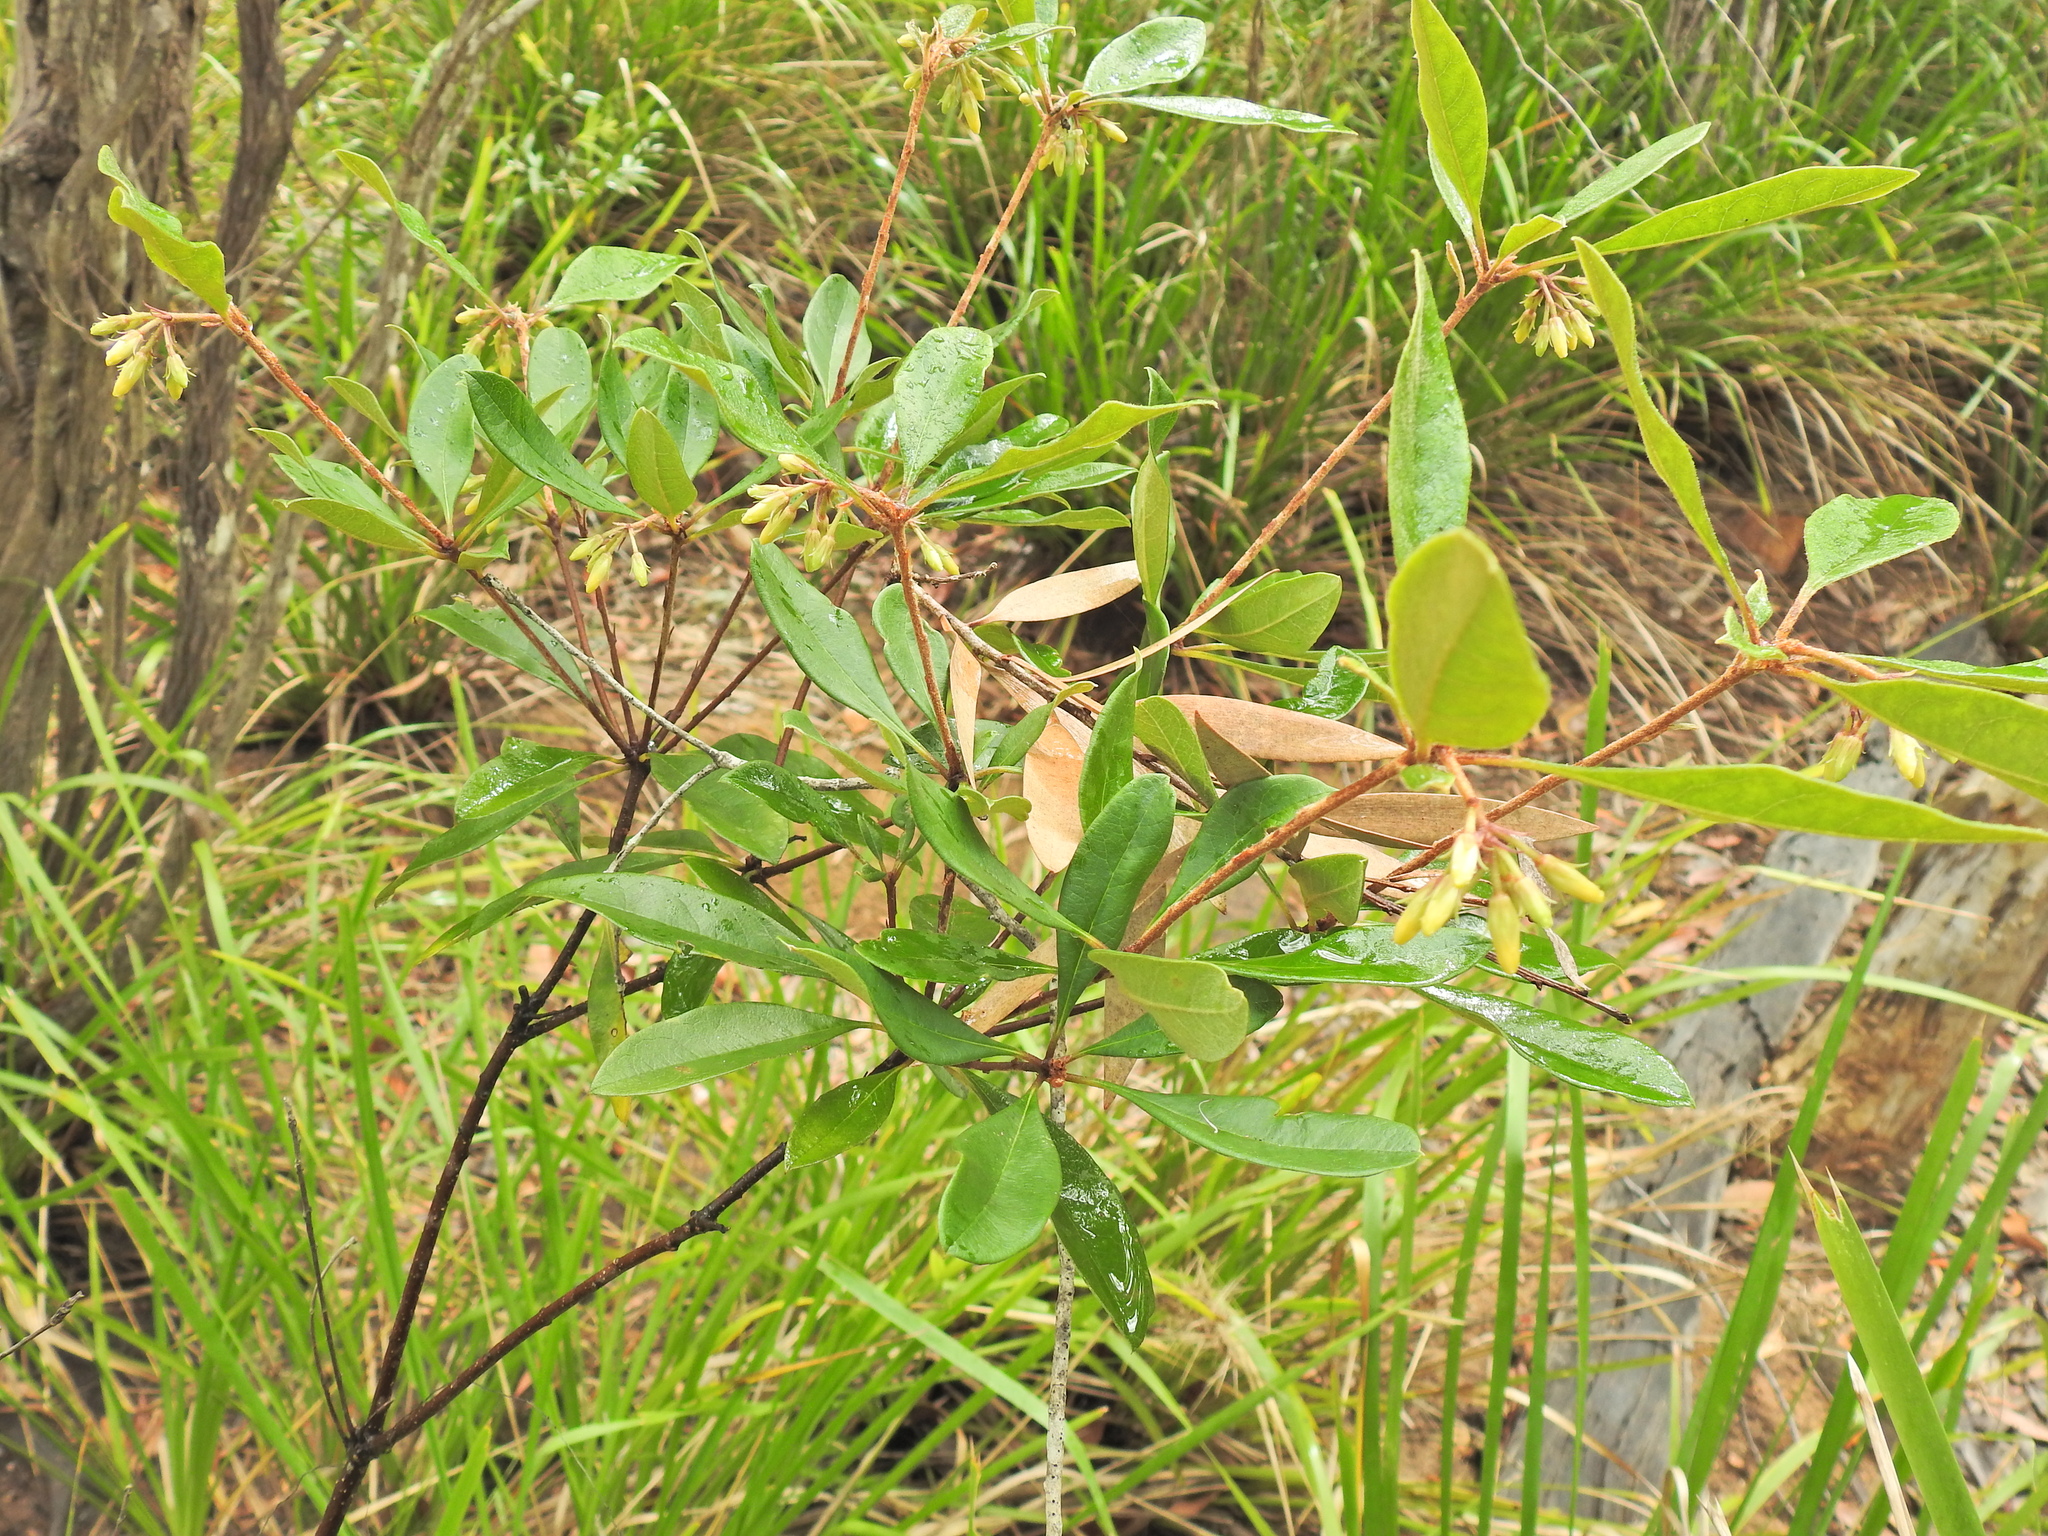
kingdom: Plantae
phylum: Tracheophyta
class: Magnoliopsida
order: Apiales
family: Pittosporaceae
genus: Pittosporum
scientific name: Pittosporum revolutum
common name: Brisbane-laurel
